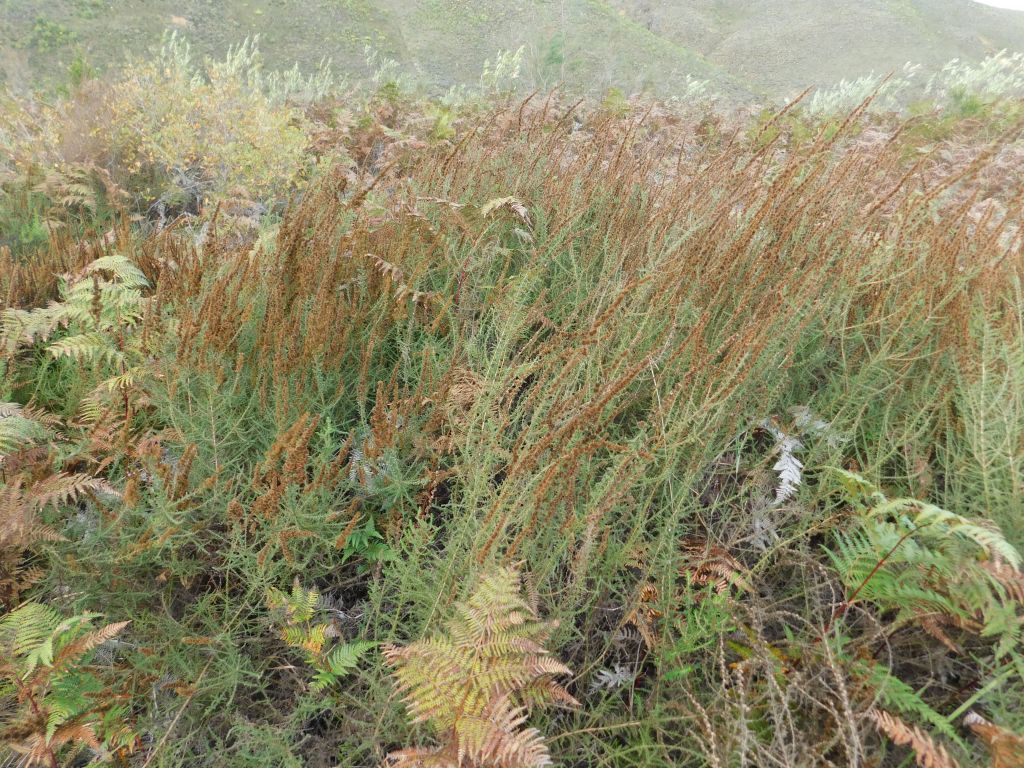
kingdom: Plantae
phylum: Tracheophyta
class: Magnoliopsida
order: Asterales
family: Asteraceae
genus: Seriphium
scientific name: Seriphium plumosum
